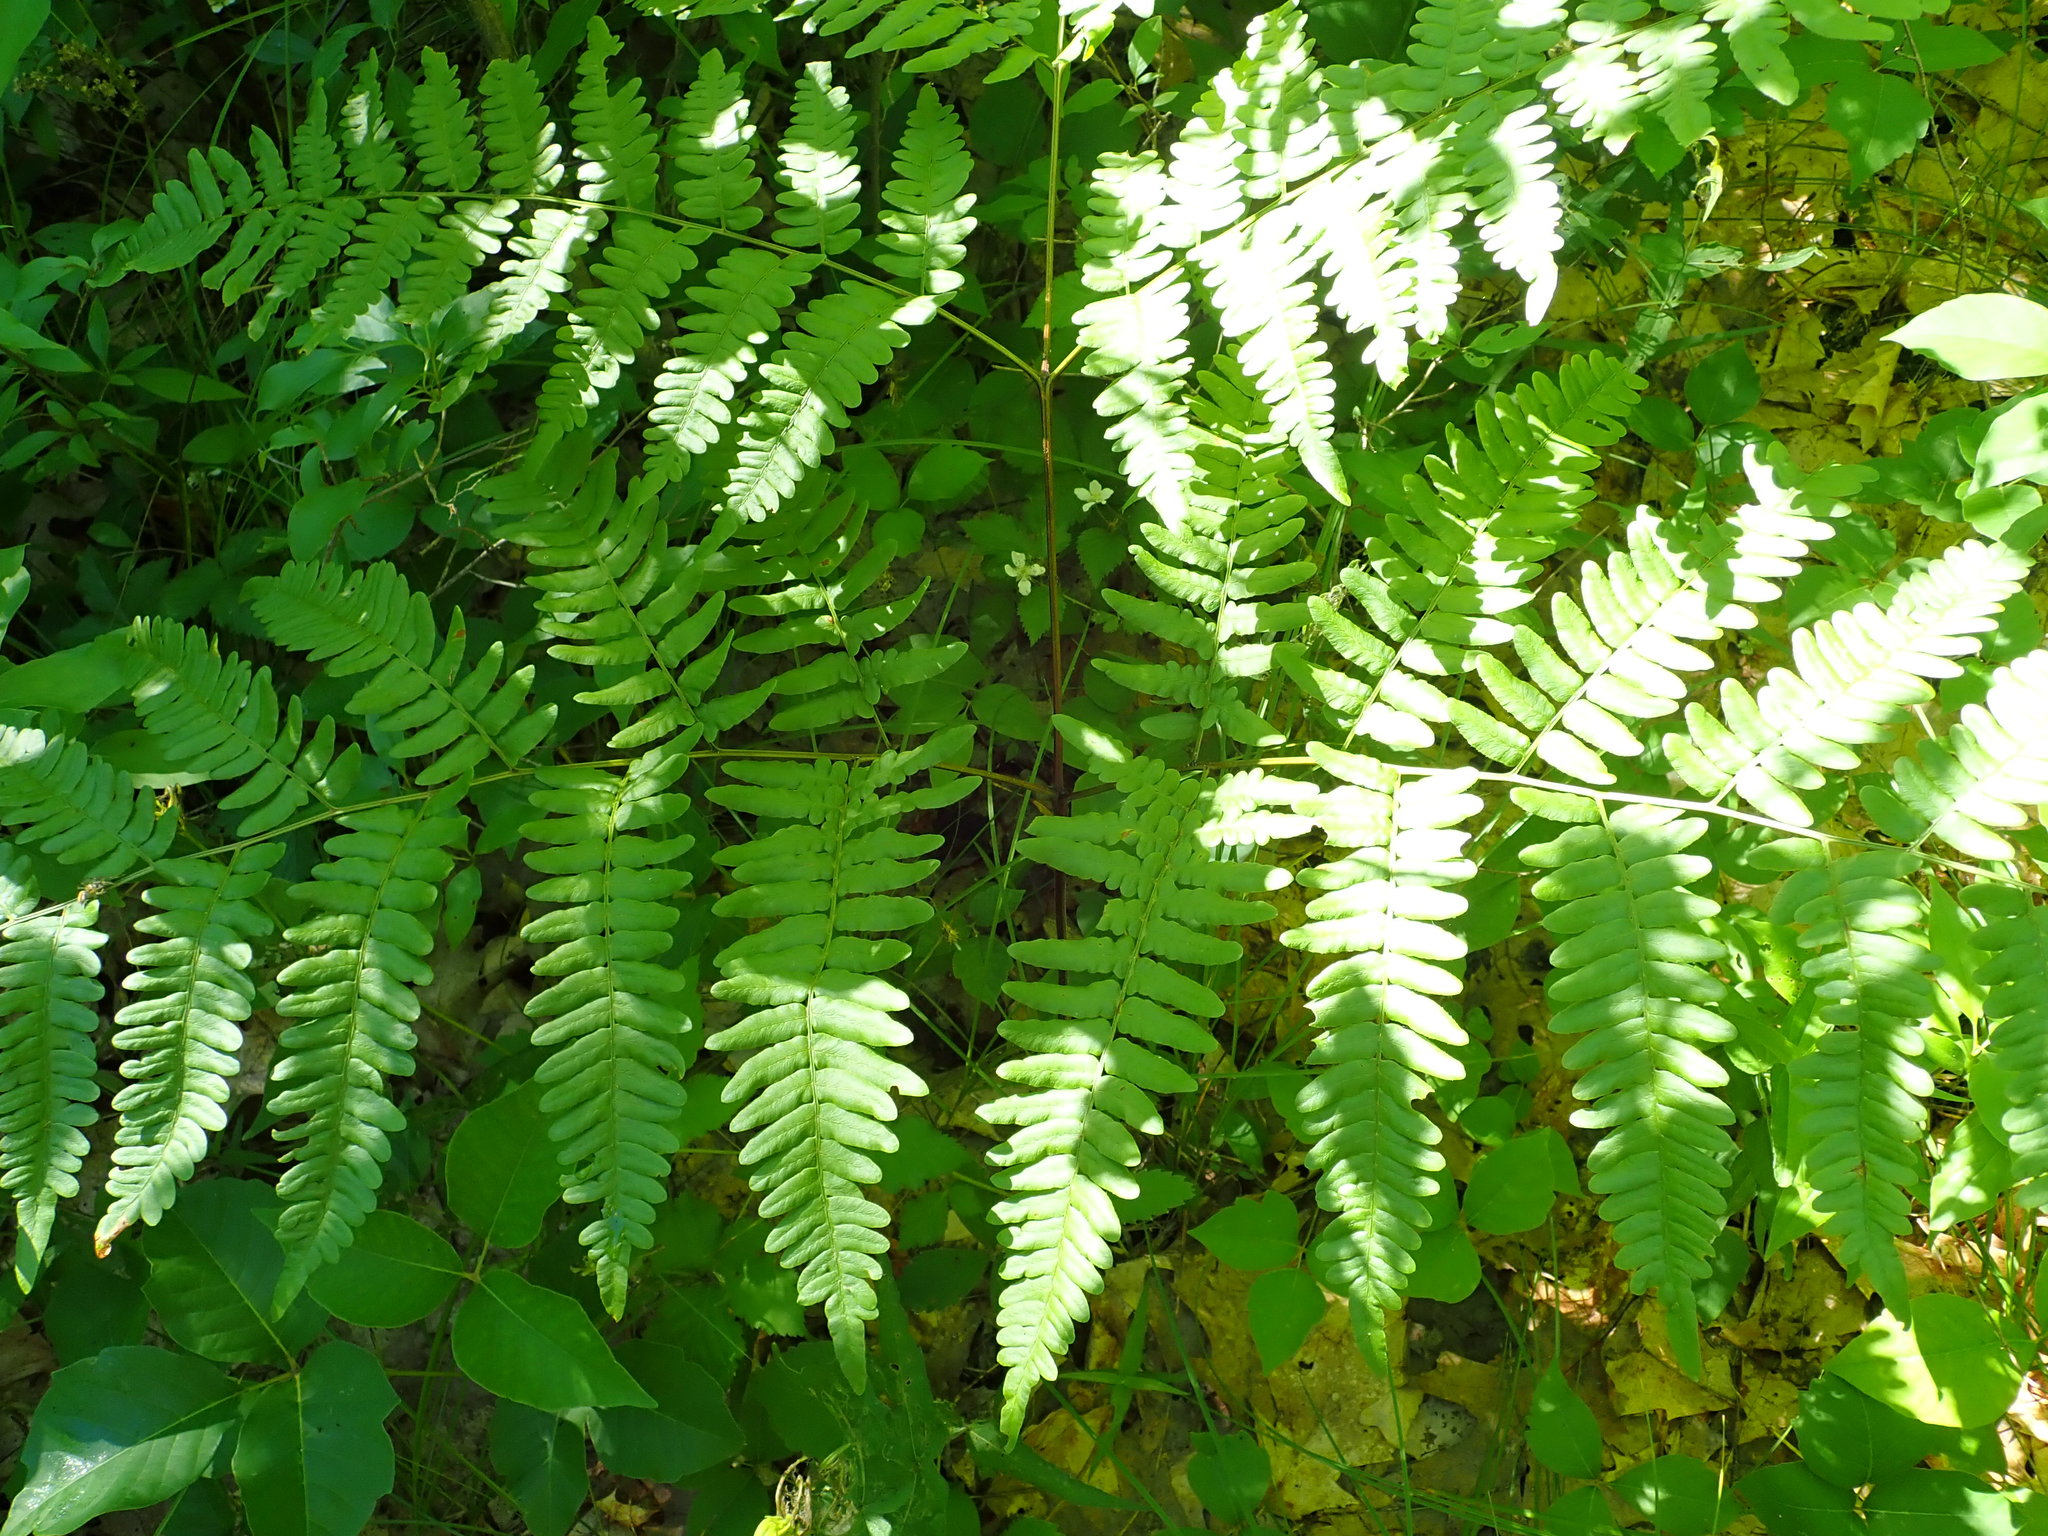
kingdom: Plantae
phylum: Tracheophyta
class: Polypodiopsida
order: Polypodiales
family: Dennstaedtiaceae
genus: Pteridium
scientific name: Pteridium aquilinum
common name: Bracken
